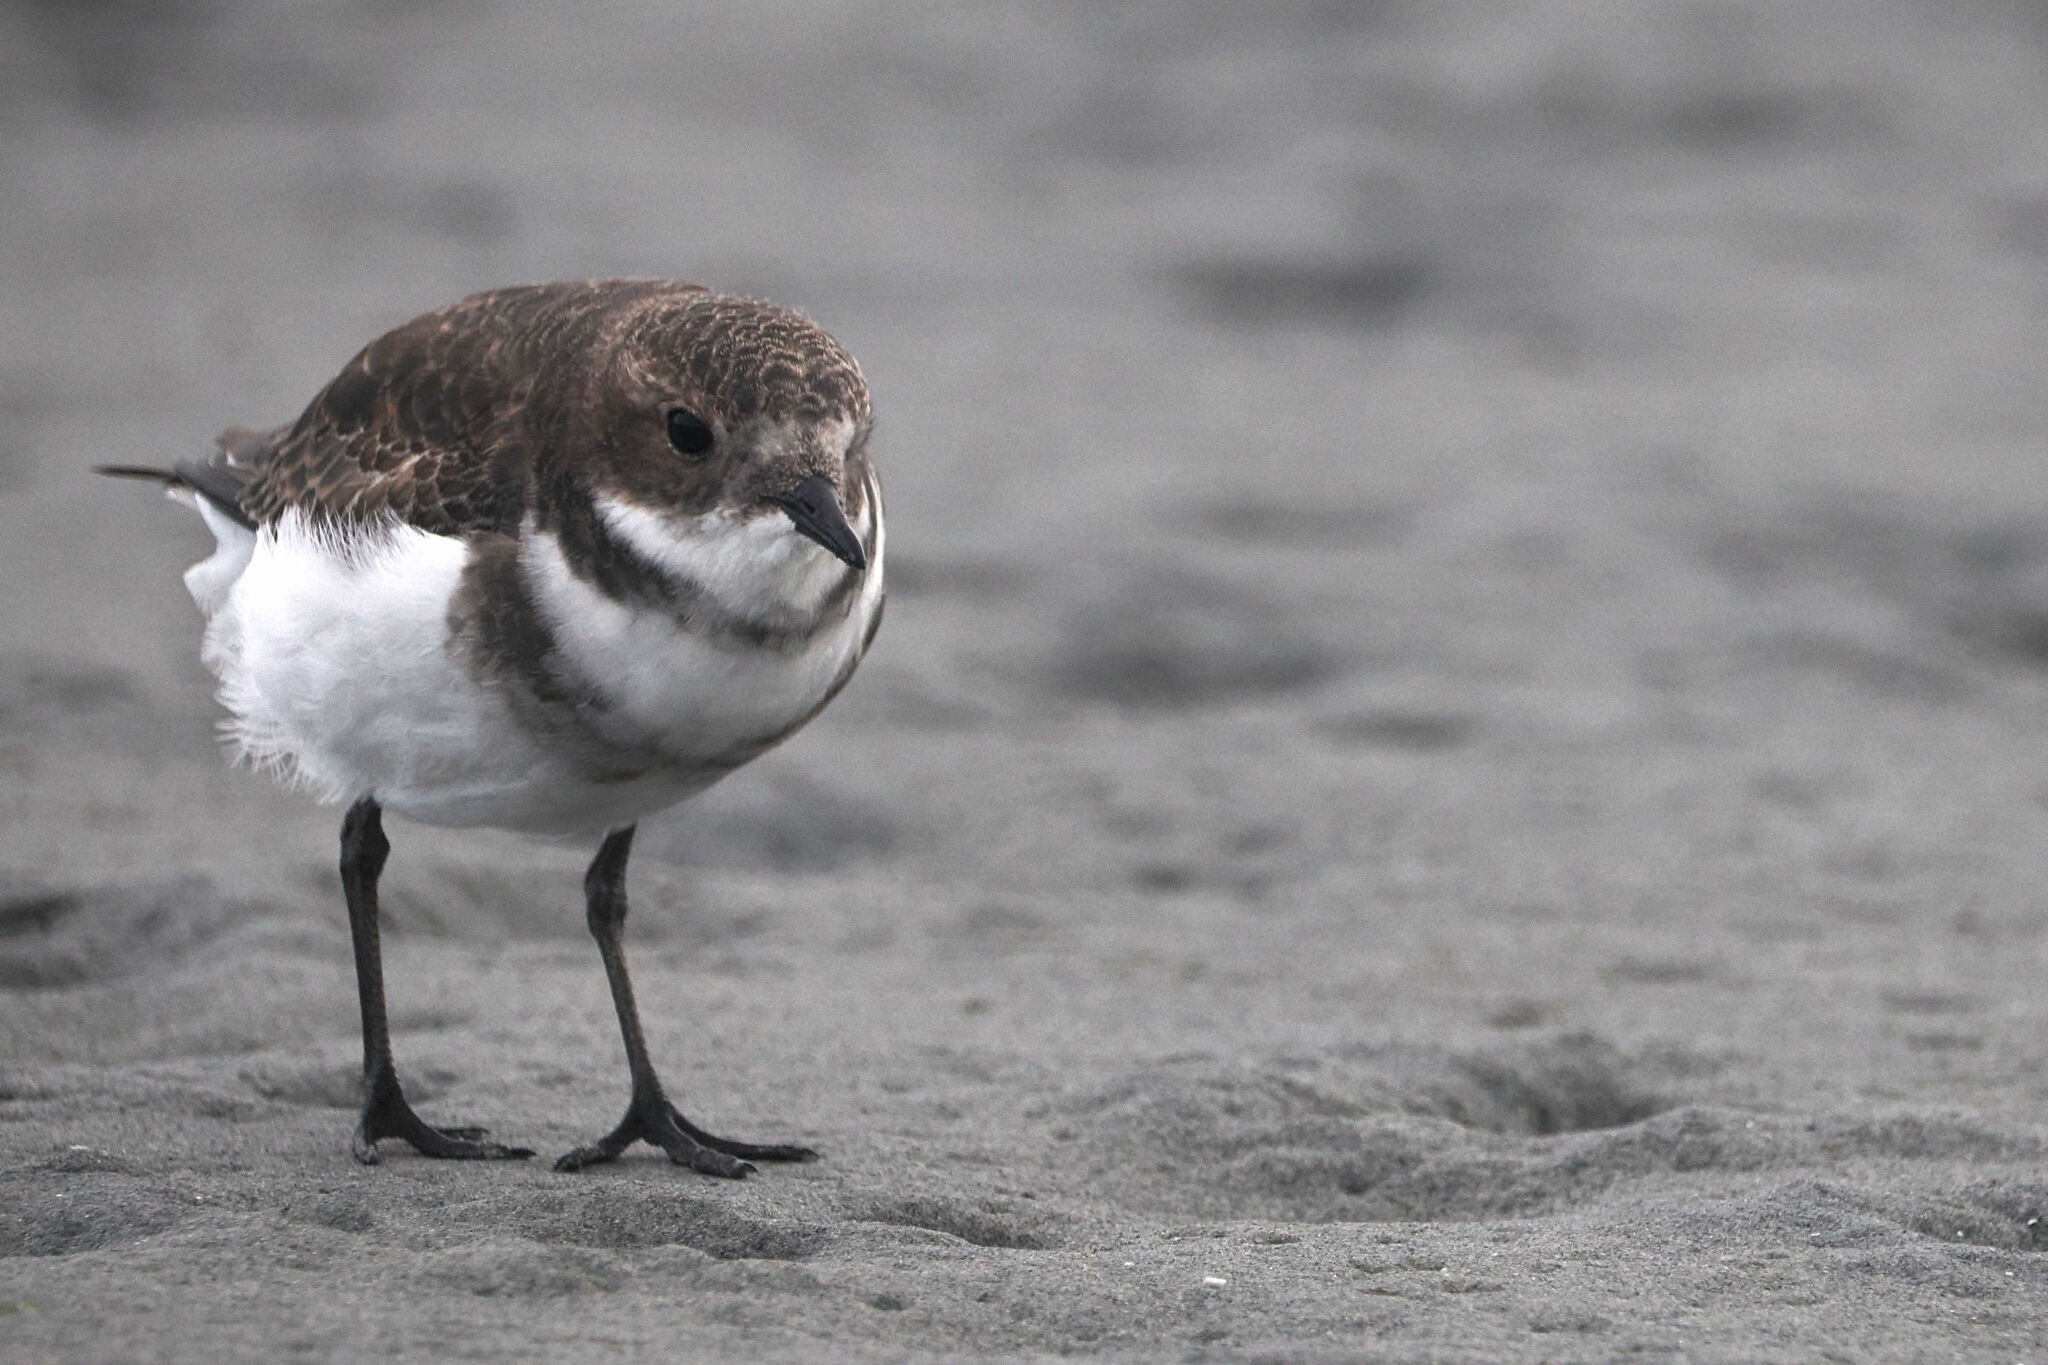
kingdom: Animalia
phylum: Chordata
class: Aves
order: Charadriiformes
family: Charadriidae
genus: Anarhynchus
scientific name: Anarhynchus
